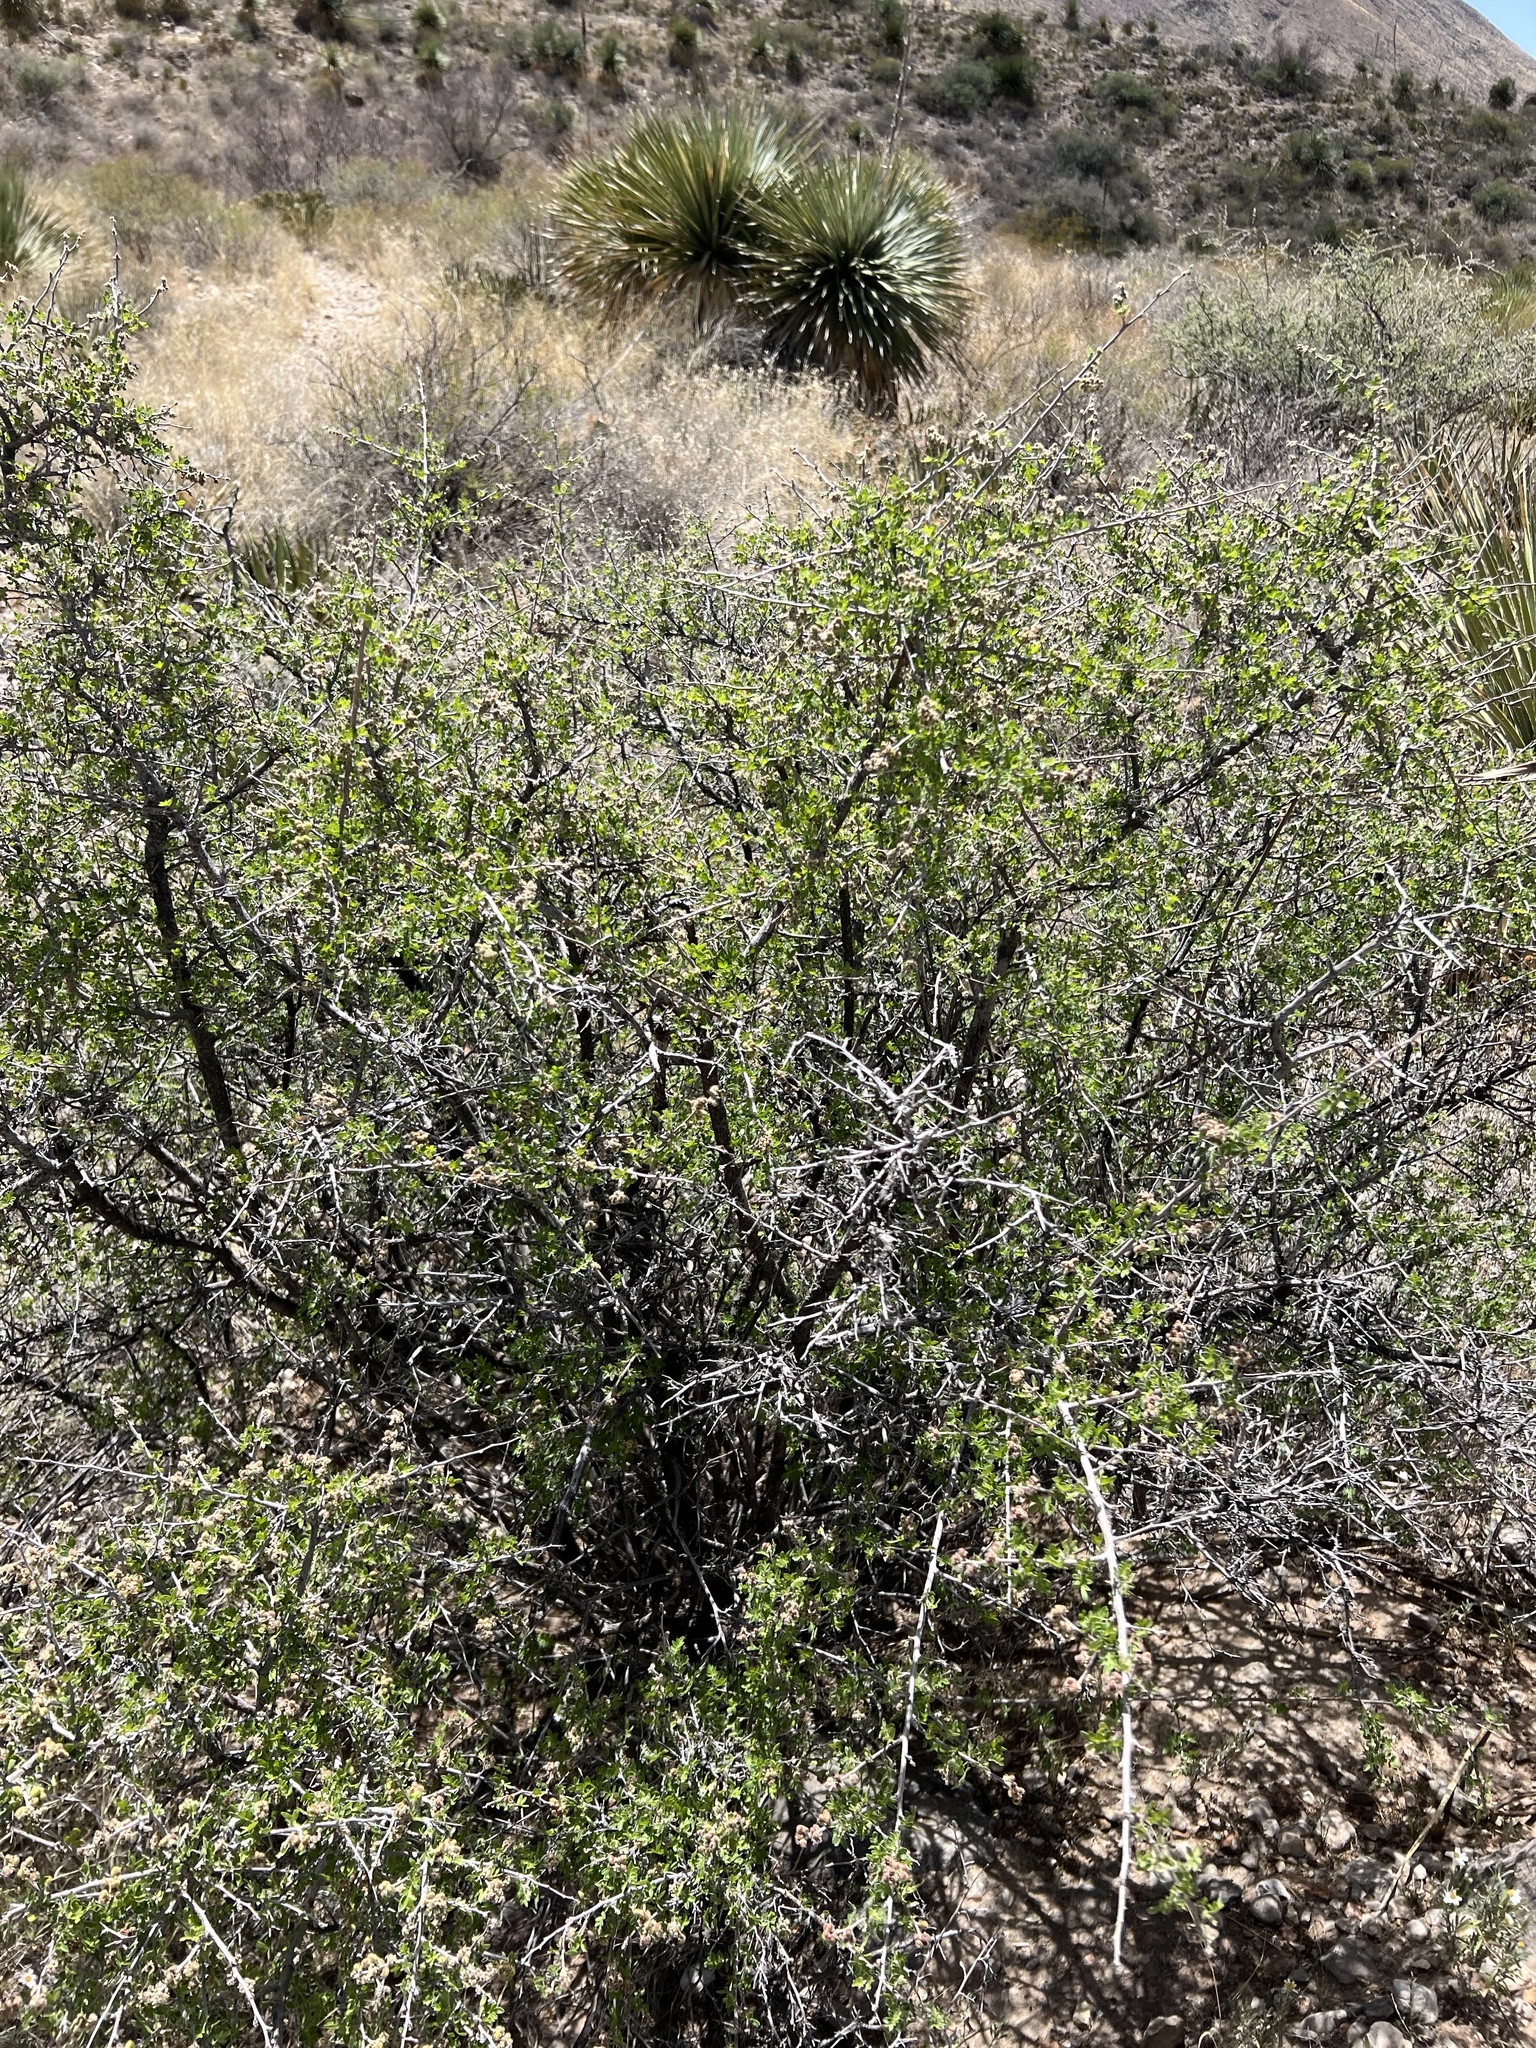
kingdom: Plantae
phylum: Tracheophyta
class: Magnoliopsida
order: Sapindales
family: Anacardiaceae
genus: Rhus
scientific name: Rhus microphylla
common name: Desert sumac
